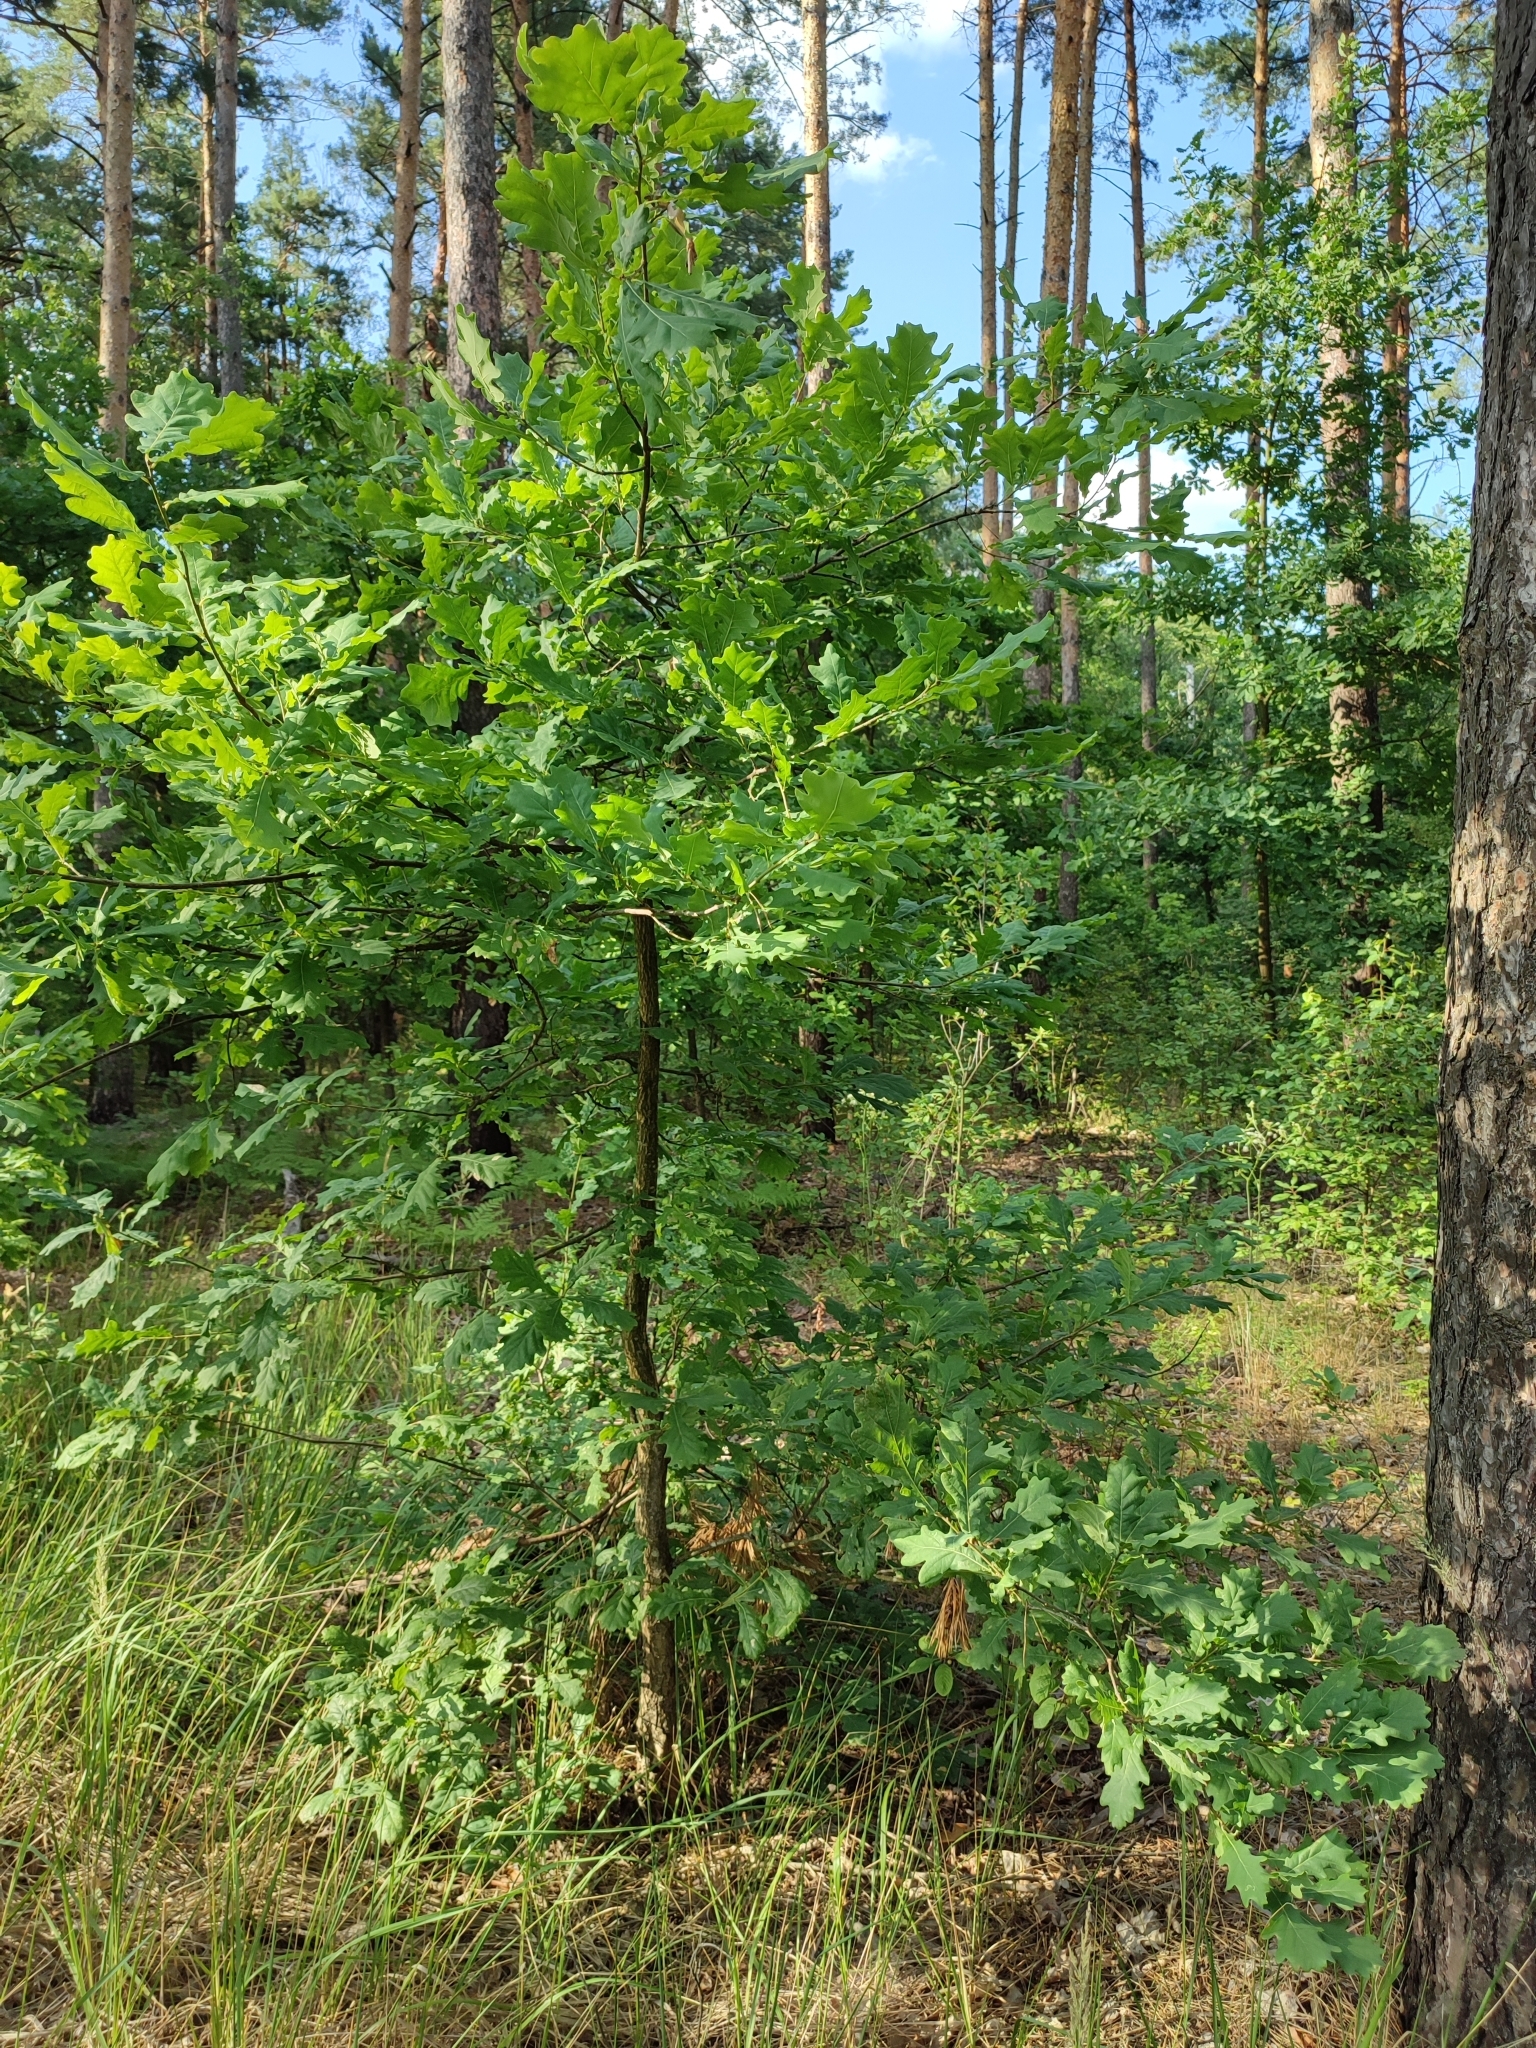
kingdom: Plantae
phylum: Tracheophyta
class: Magnoliopsida
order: Fagales
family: Fagaceae
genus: Quercus
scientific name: Quercus robur
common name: Pedunculate oak
